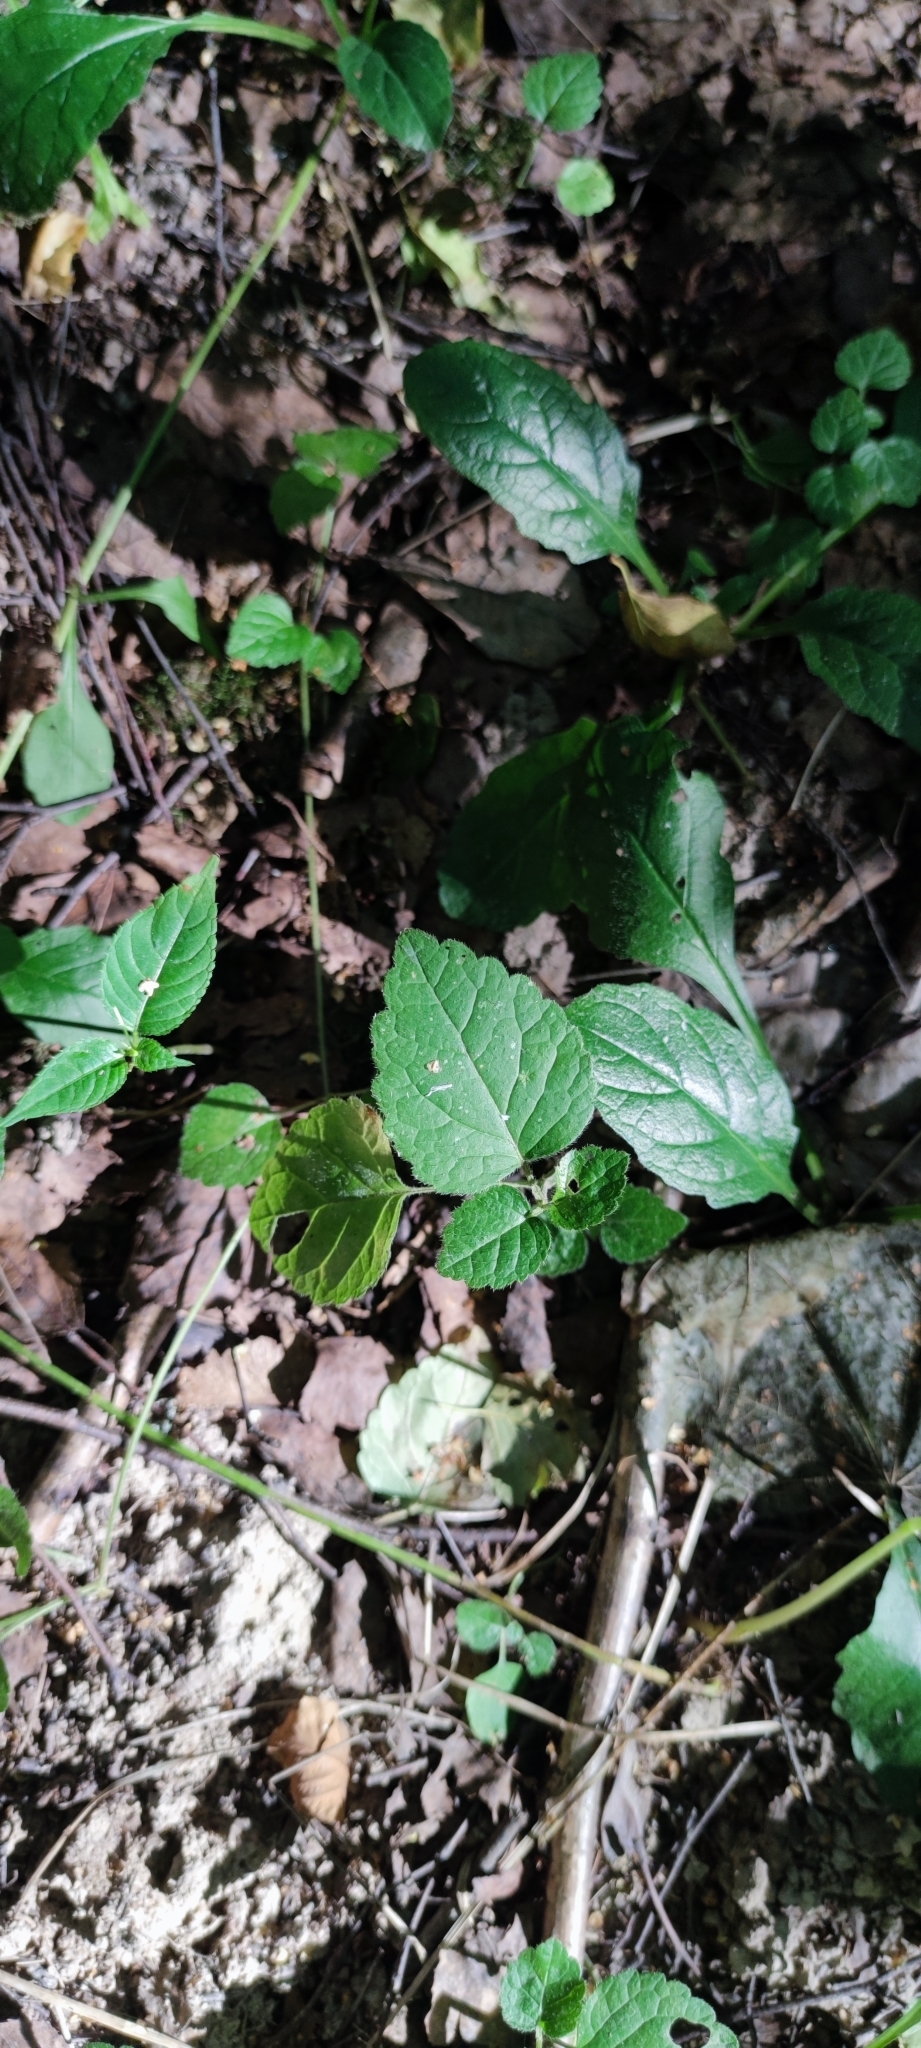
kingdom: Plantae
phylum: Tracheophyta
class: Magnoliopsida
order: Lamiales
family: Lamiaceae
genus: Lamium
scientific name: Lamium galeobdolon
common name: Yellow archangel
